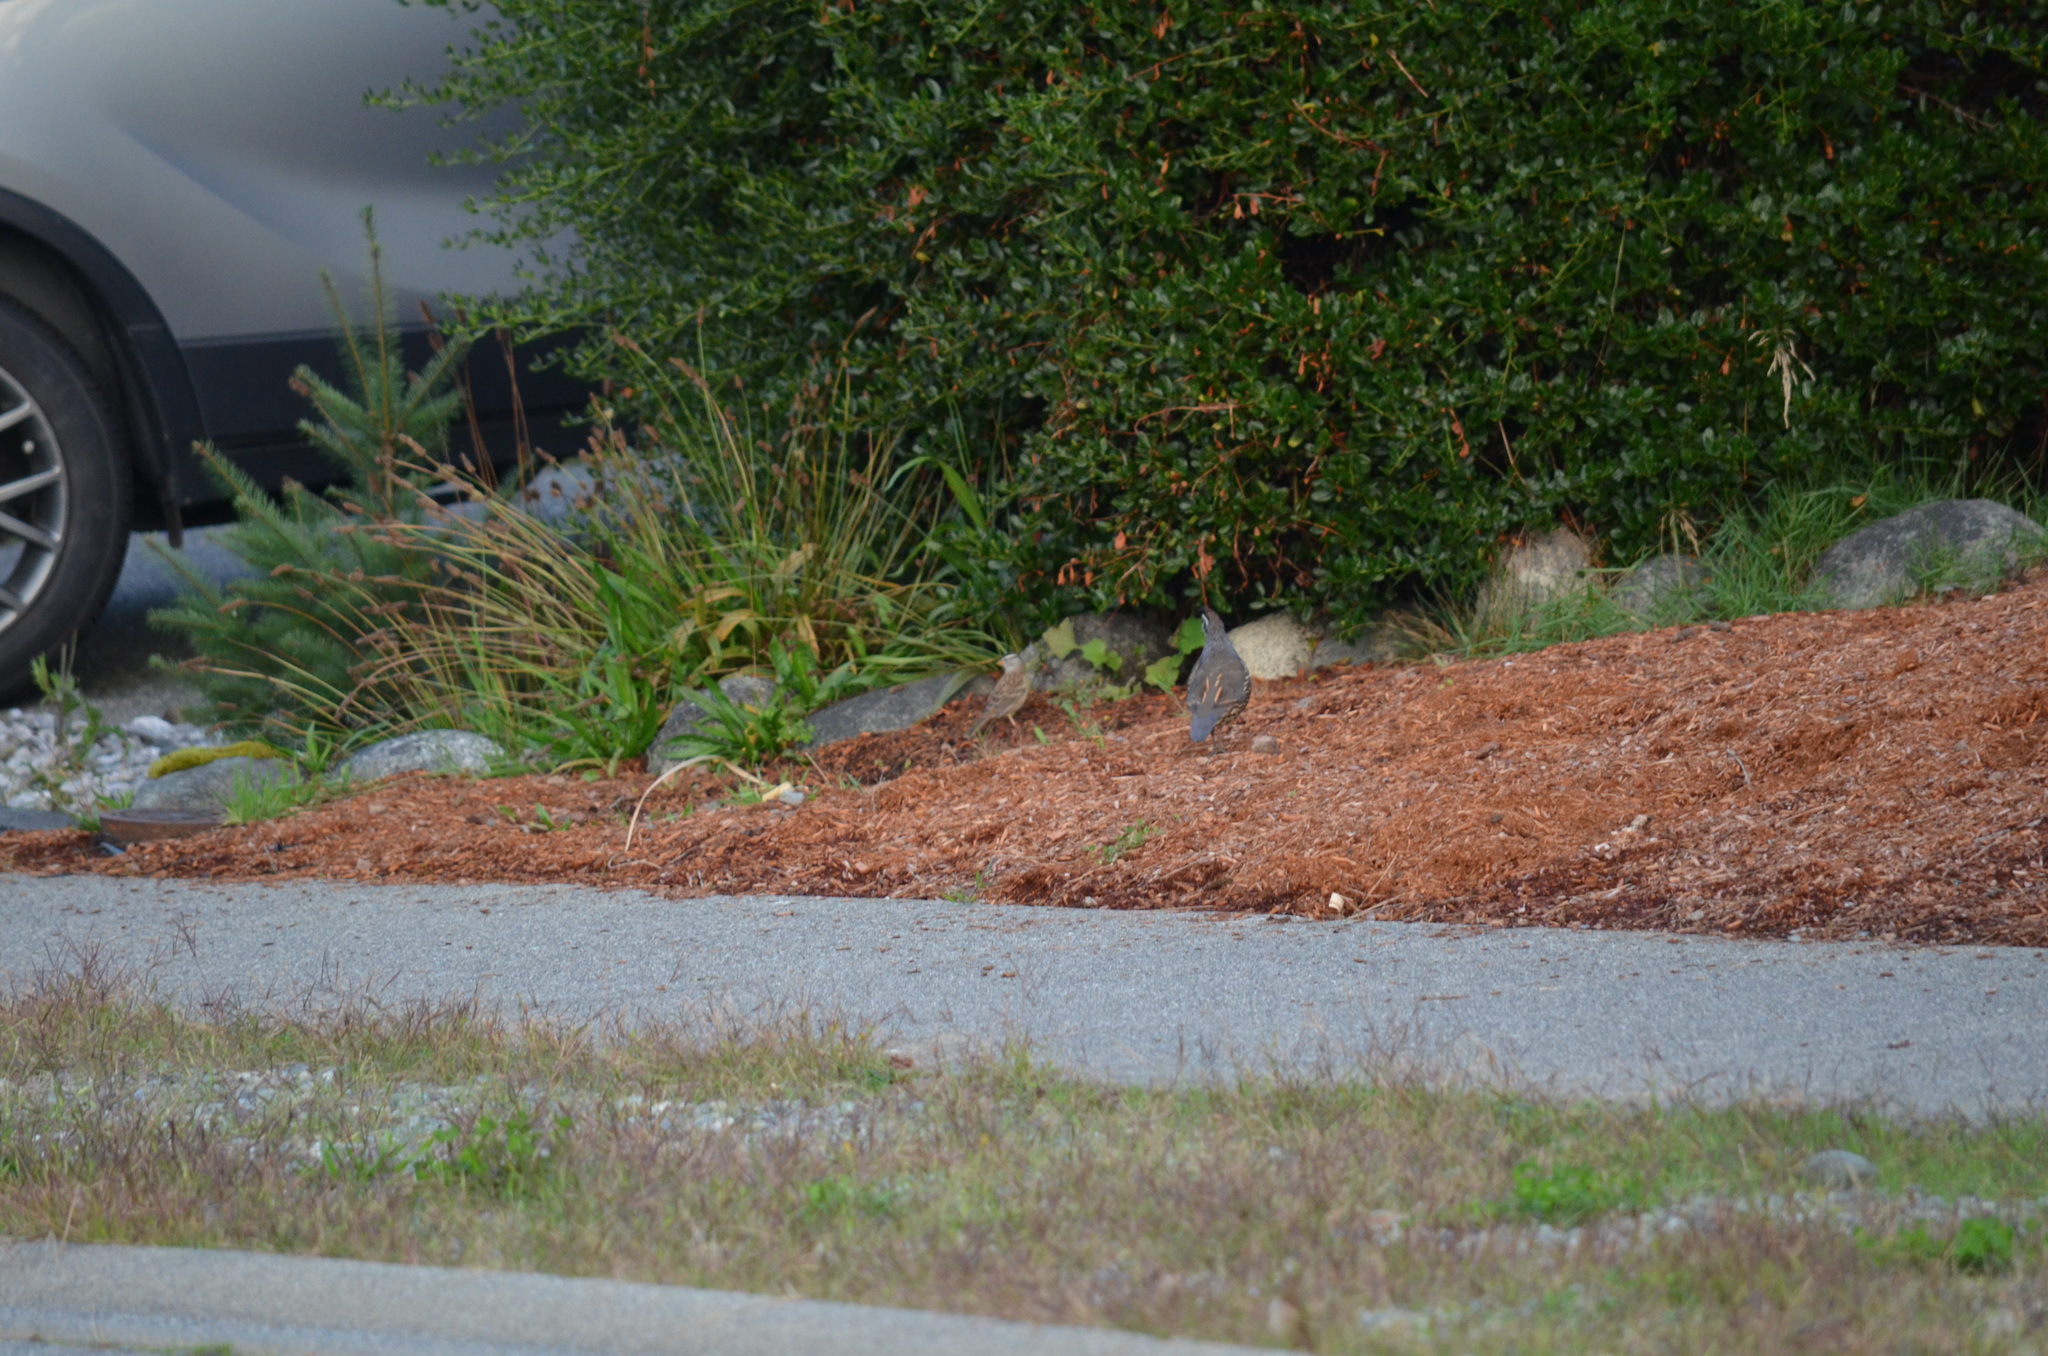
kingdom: Animalia
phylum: Chordata
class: Aves
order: Passeriformes
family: Passerellidae
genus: Zonotrichia
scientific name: Zonotrichia leucophrys
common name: White-crowned sparrow
